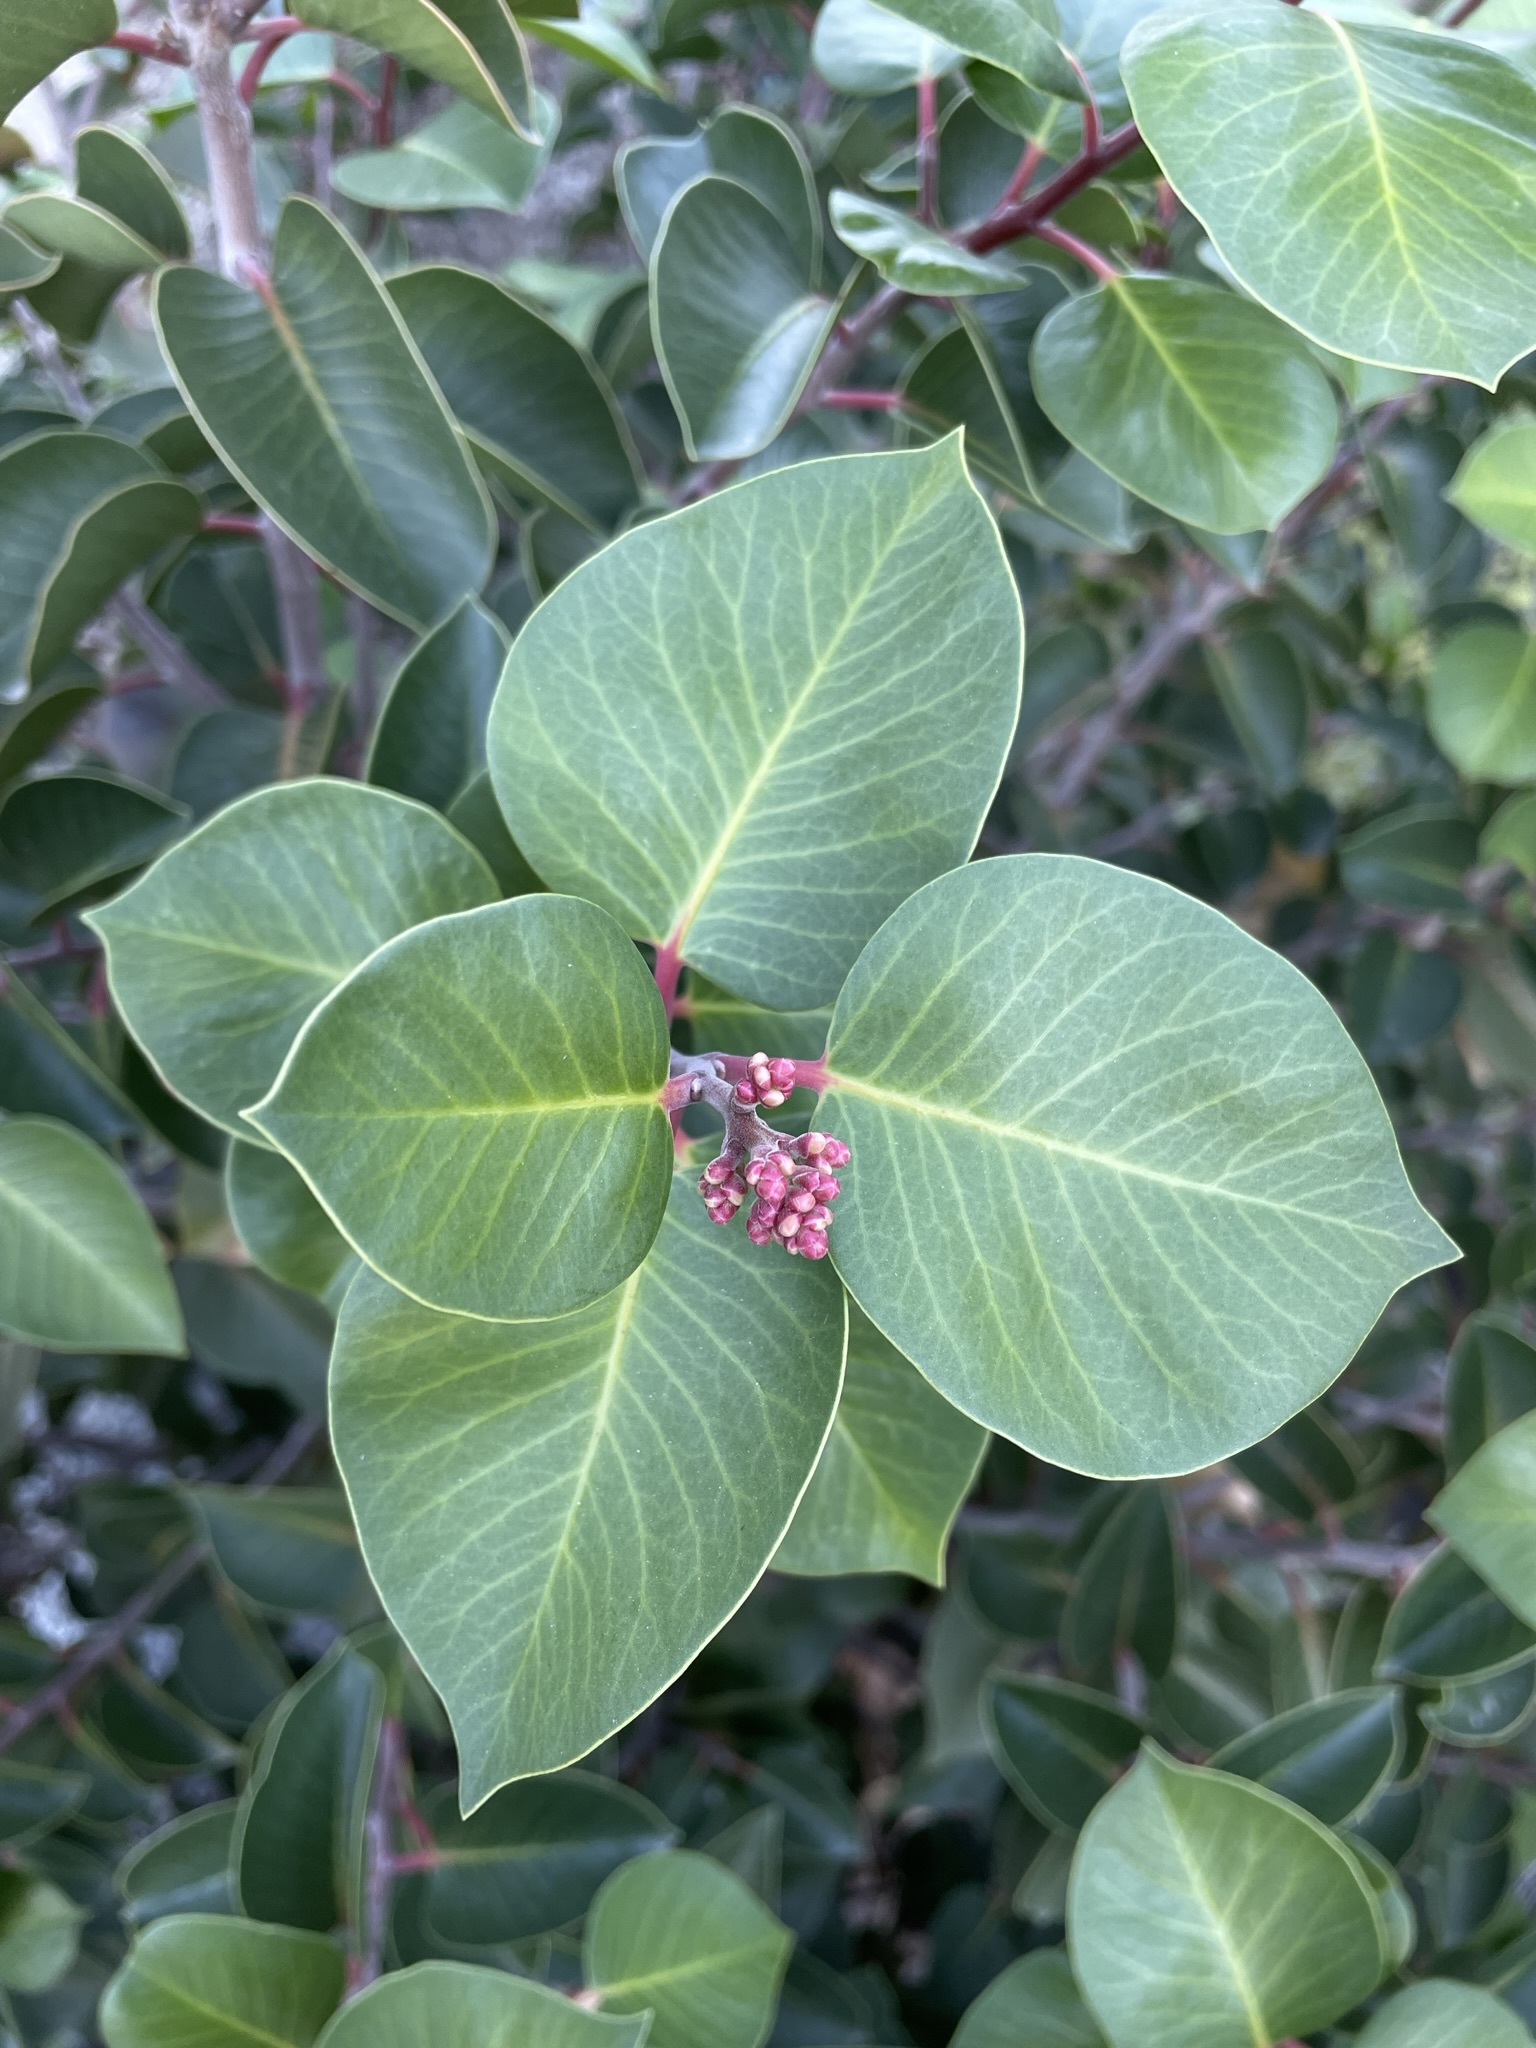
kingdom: Plantae
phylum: Tracheophyta
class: Magnoliopsida
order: Sapindales
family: Anacardiaceae
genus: Rhus
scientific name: Rhus ovata
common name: Sugar sumac
